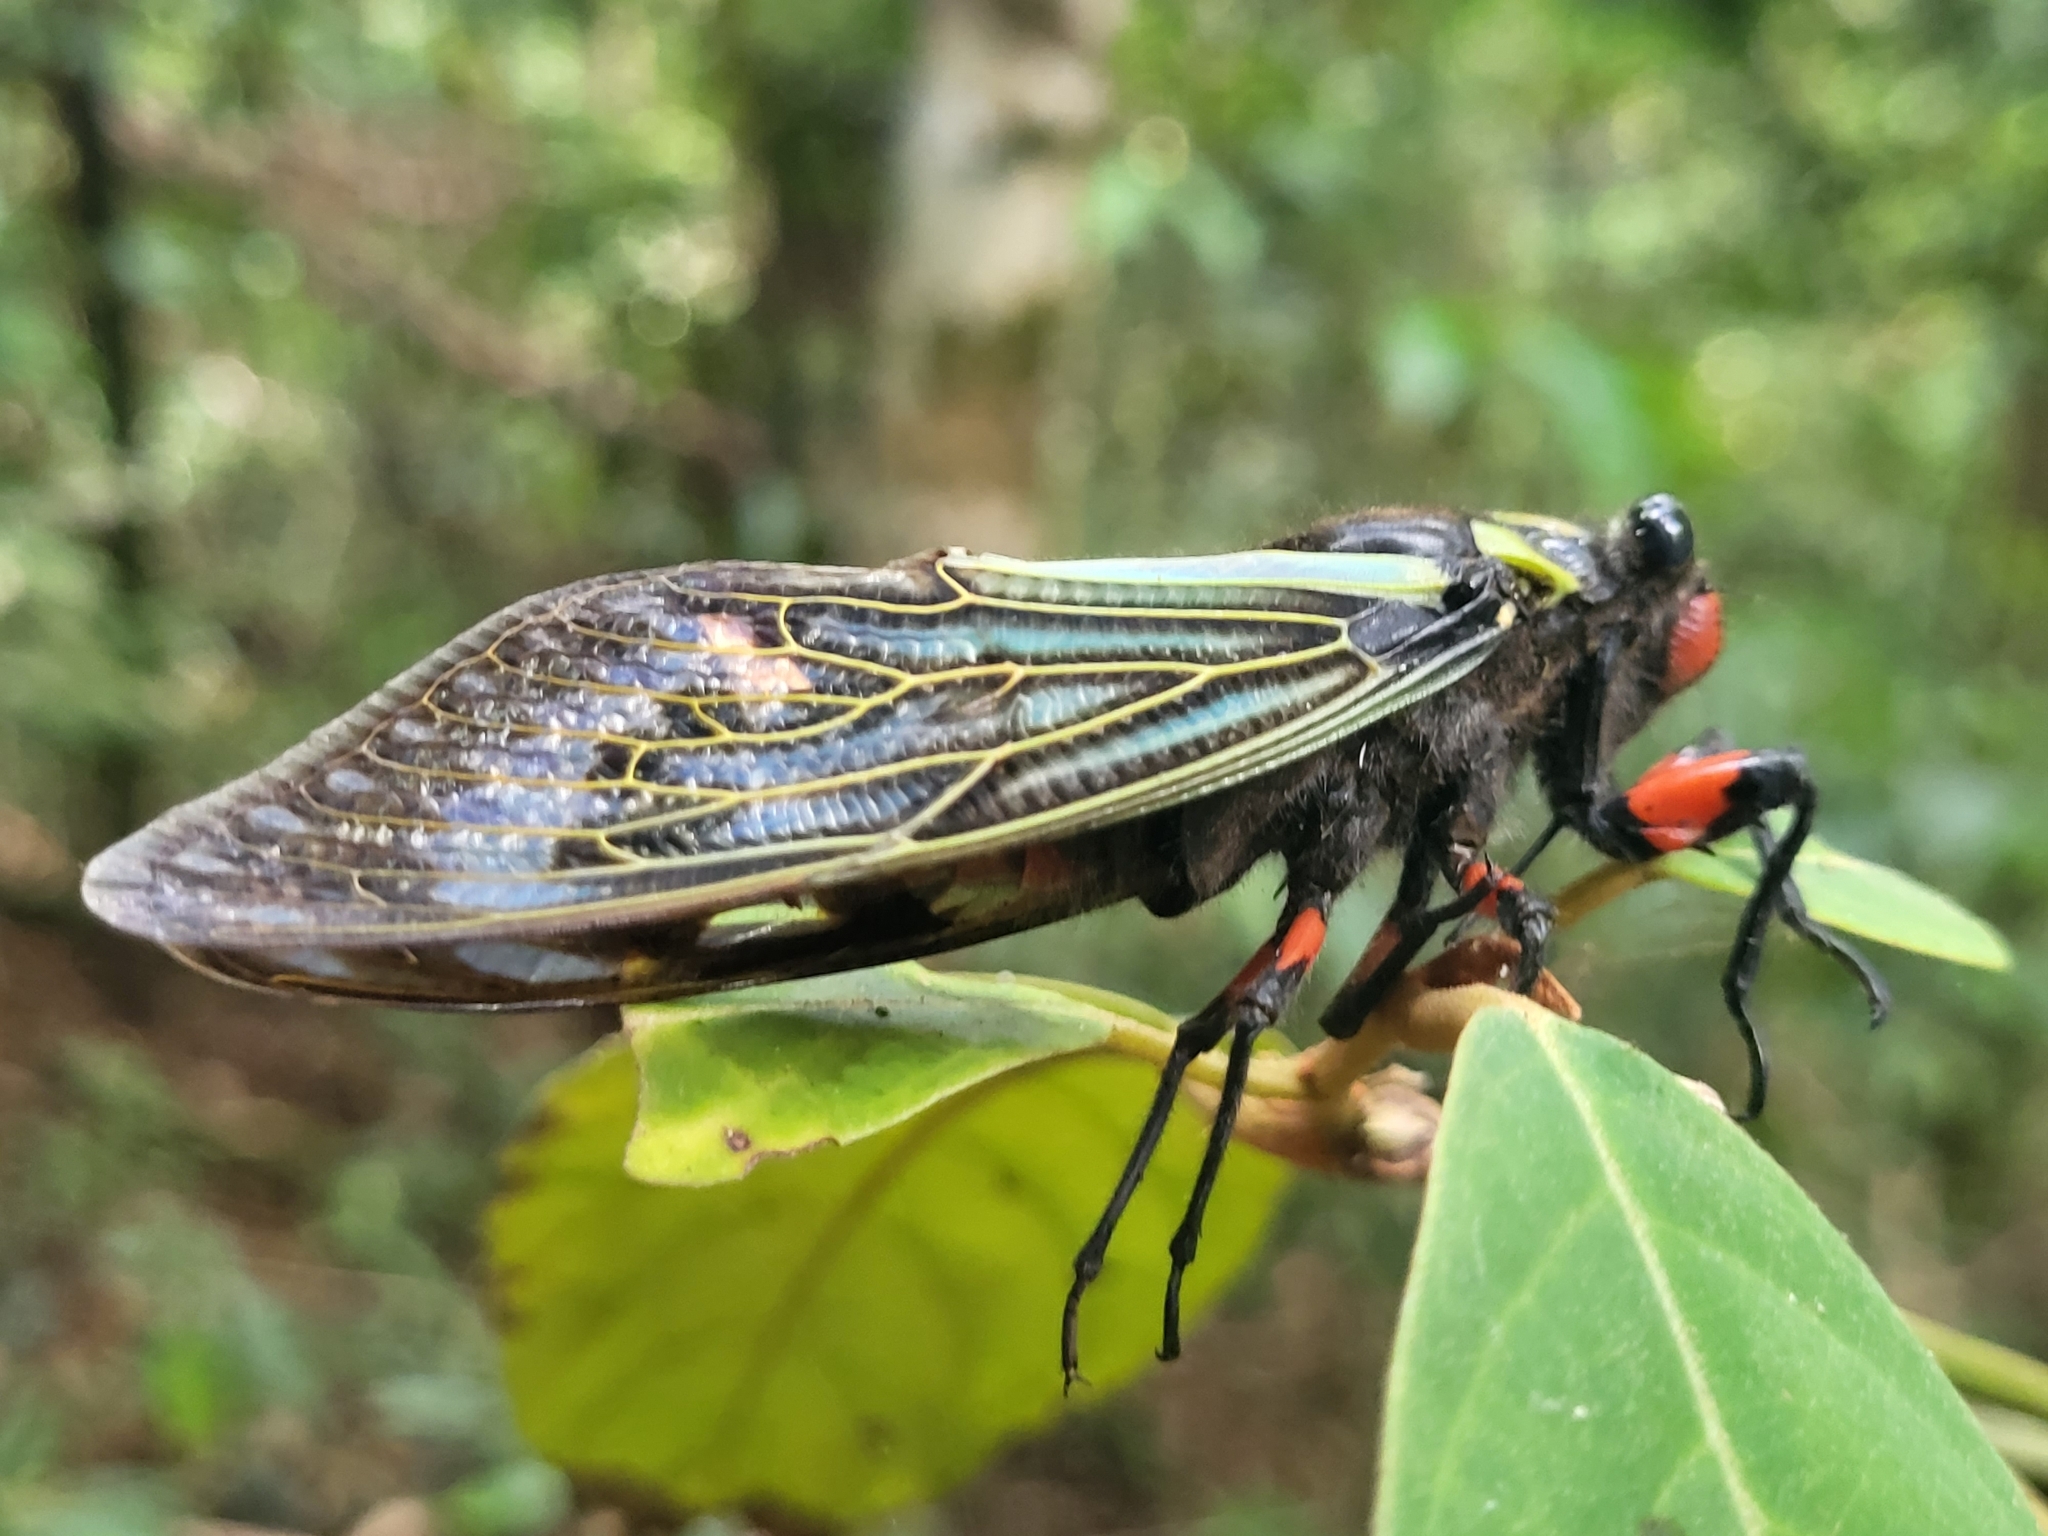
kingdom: Animalia
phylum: Arthropoda
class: Insecta
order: Hemiptera
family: Cicadidae
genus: Distantalna
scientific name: Distantalna splendida
